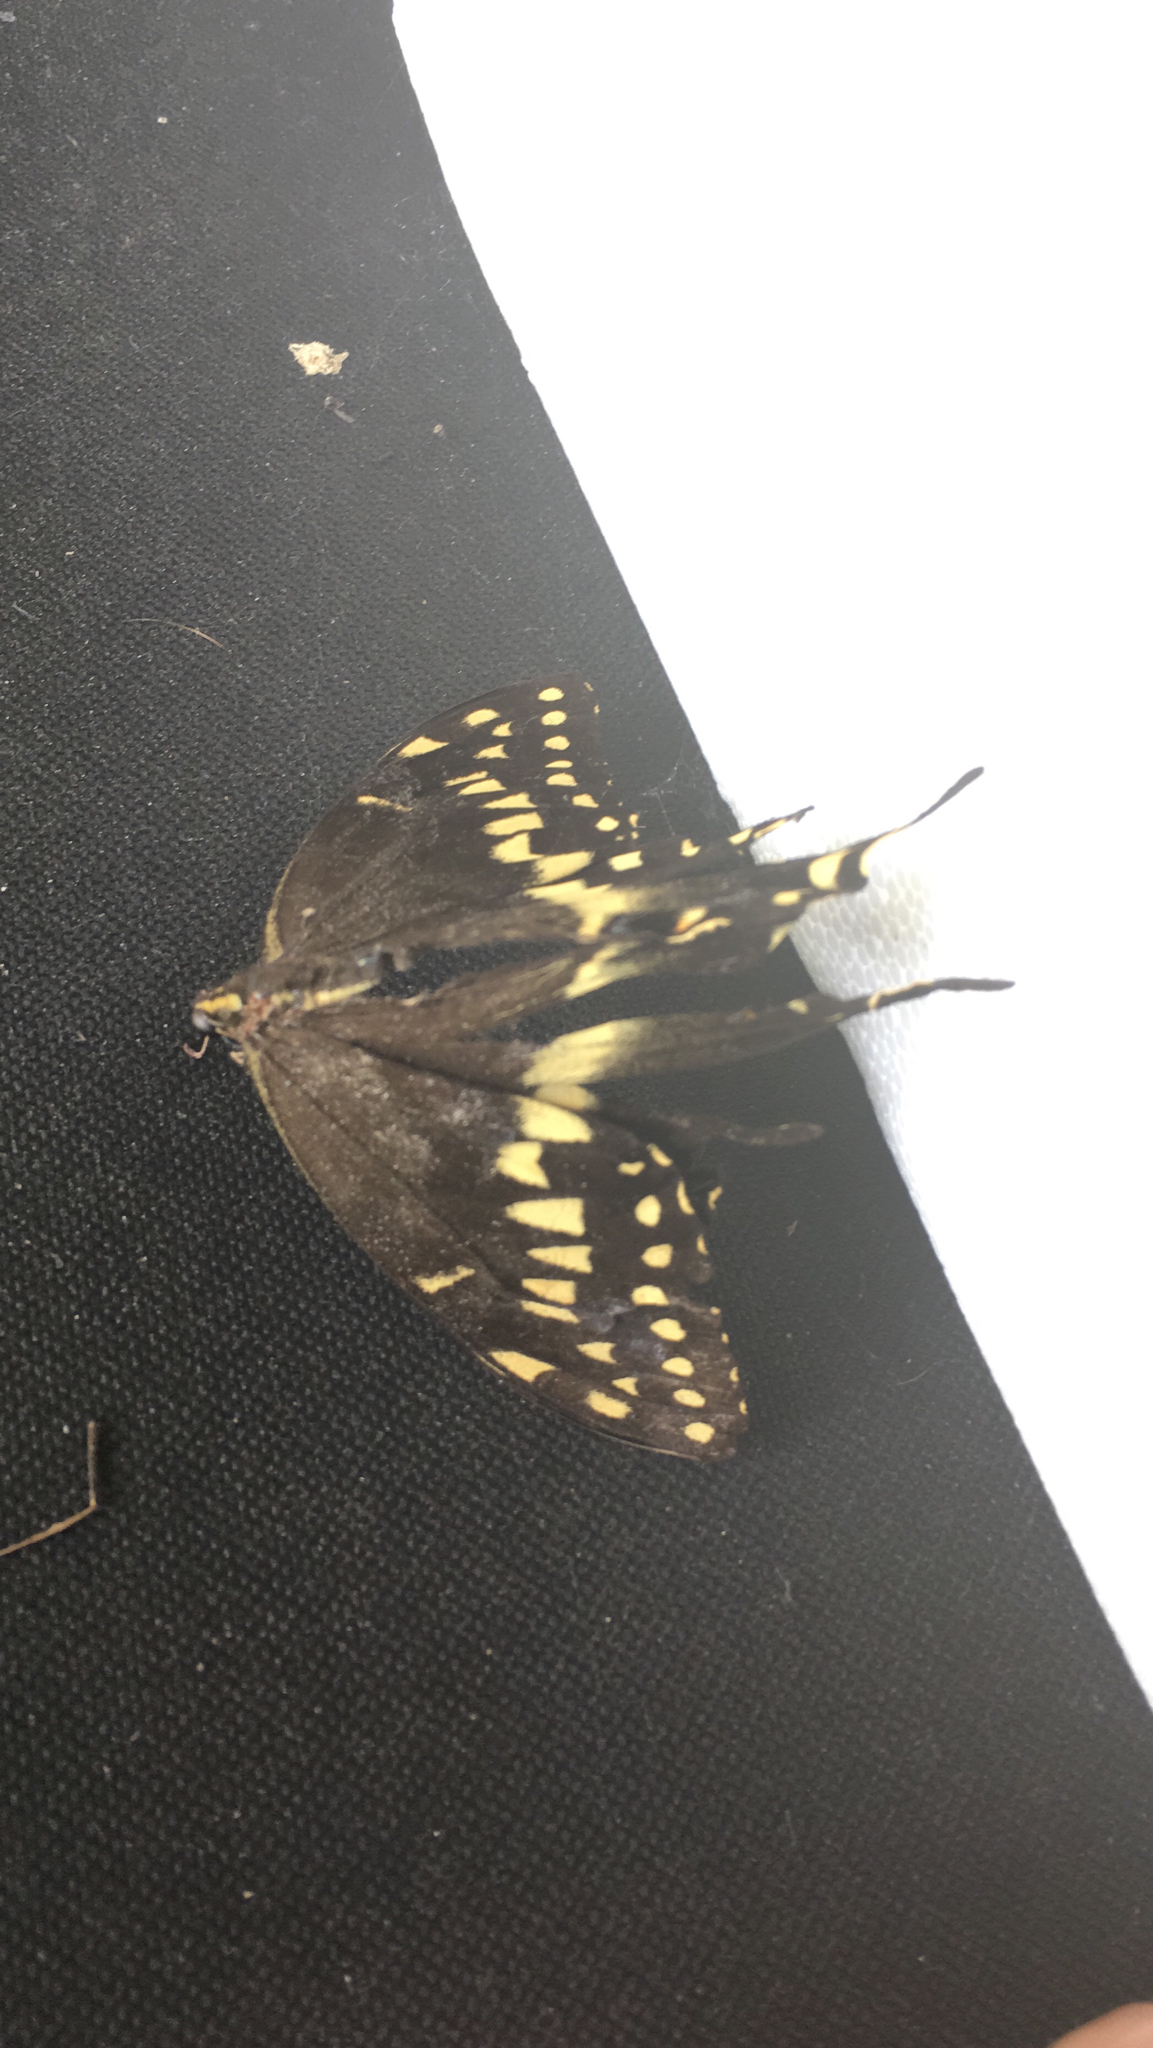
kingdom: Animalia
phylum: Arthropoda
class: Insecta
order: Lepidoptera
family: Papilionidae
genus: Papilio
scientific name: Papilio palamedes
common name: Palamedes swallowtail
